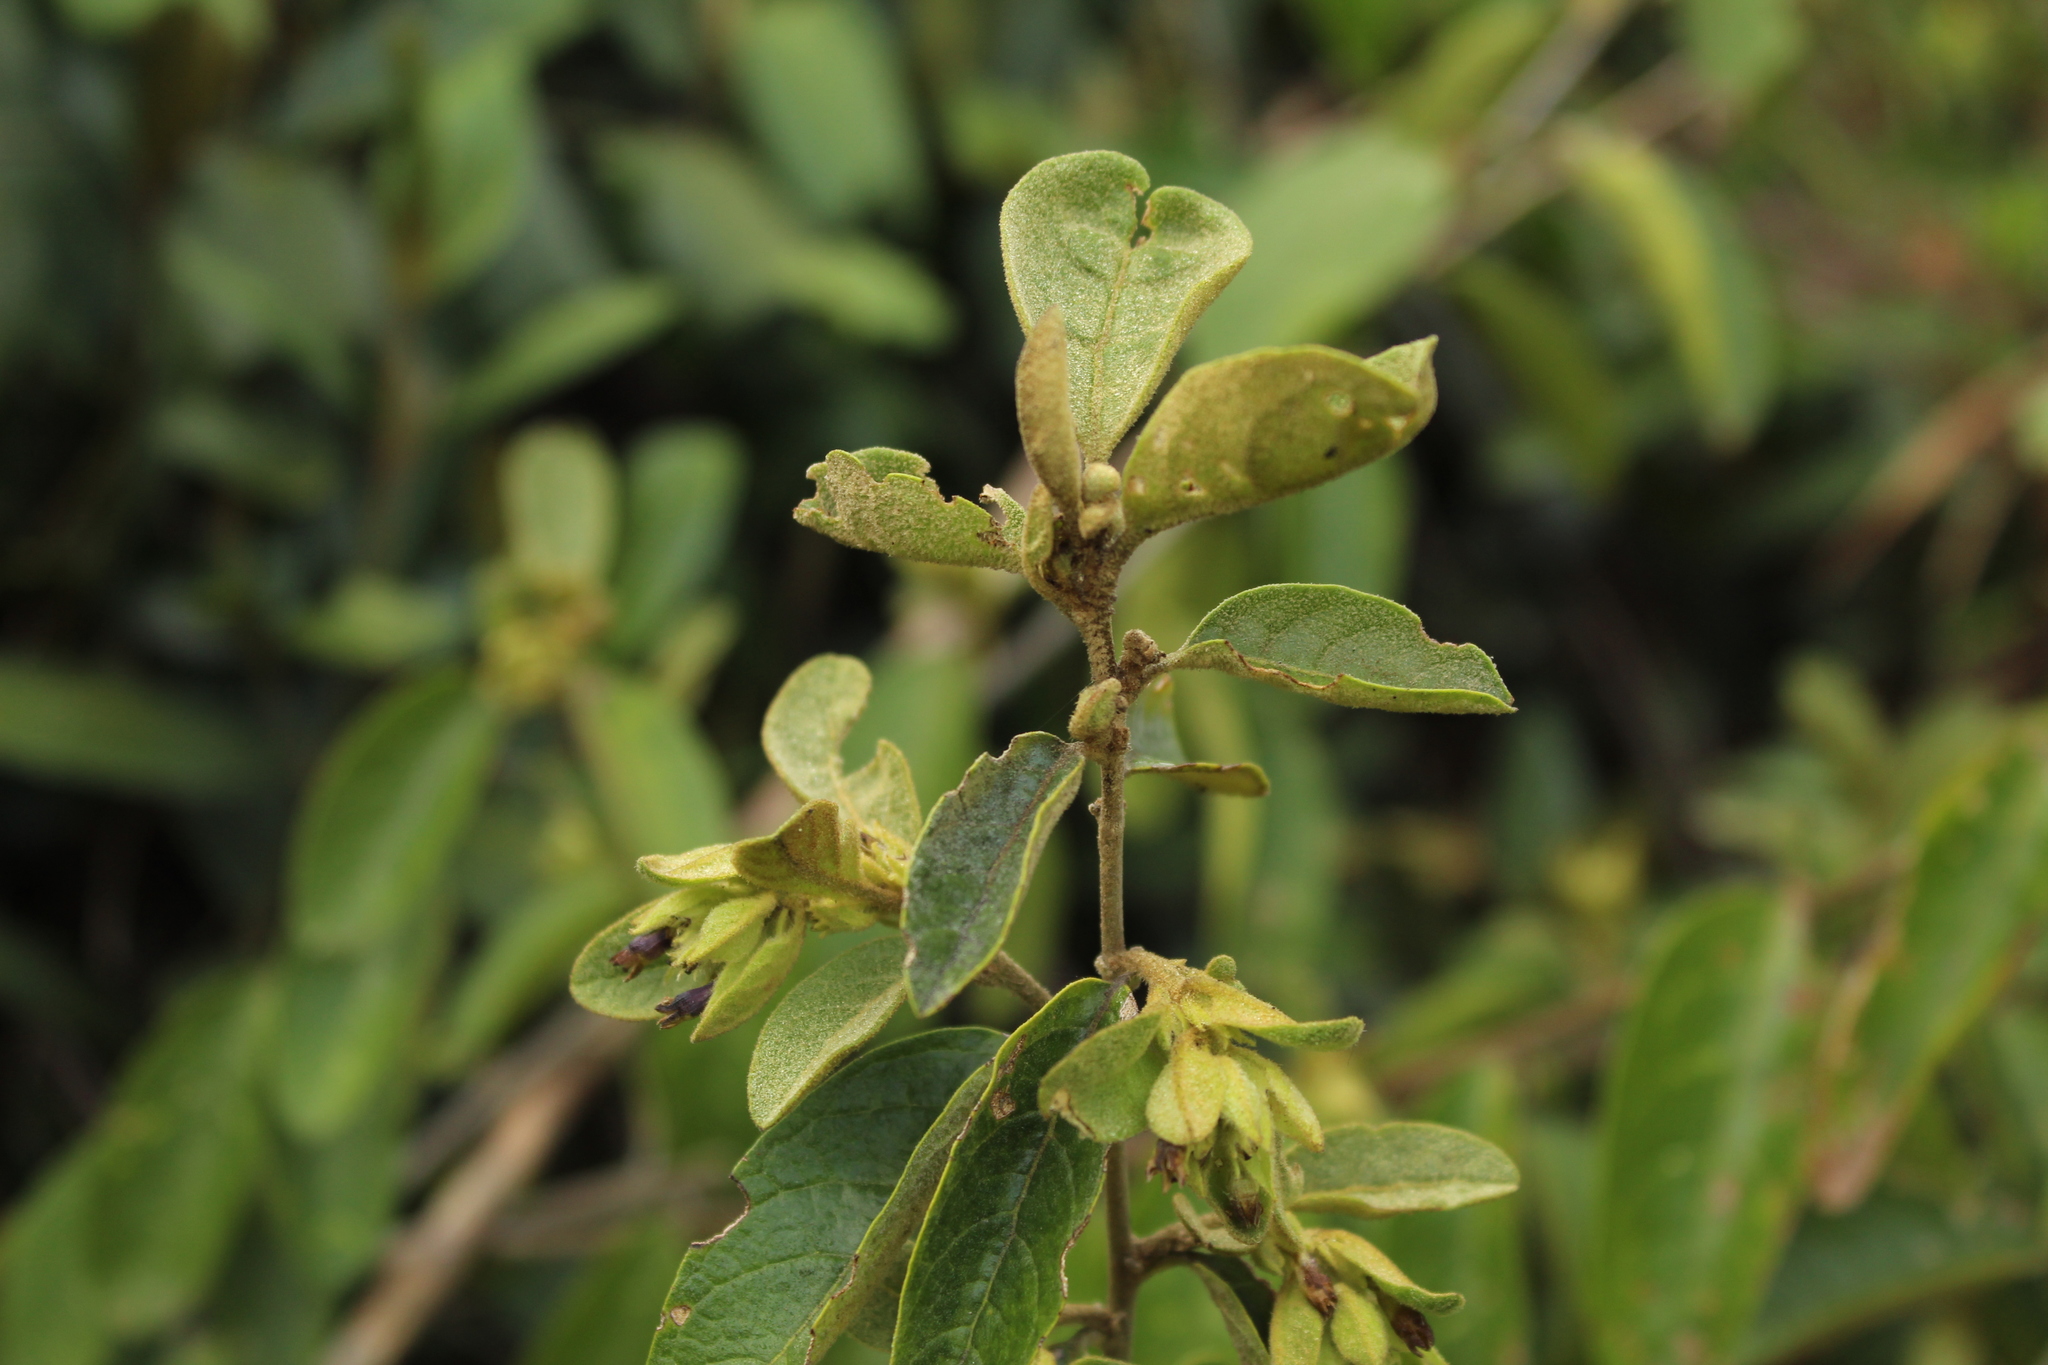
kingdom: Plantae
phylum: Tracheophyta
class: Magnoliopsida
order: Solanales
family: Solanaceae
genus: Cestrum
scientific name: Cestrum tomentosum
